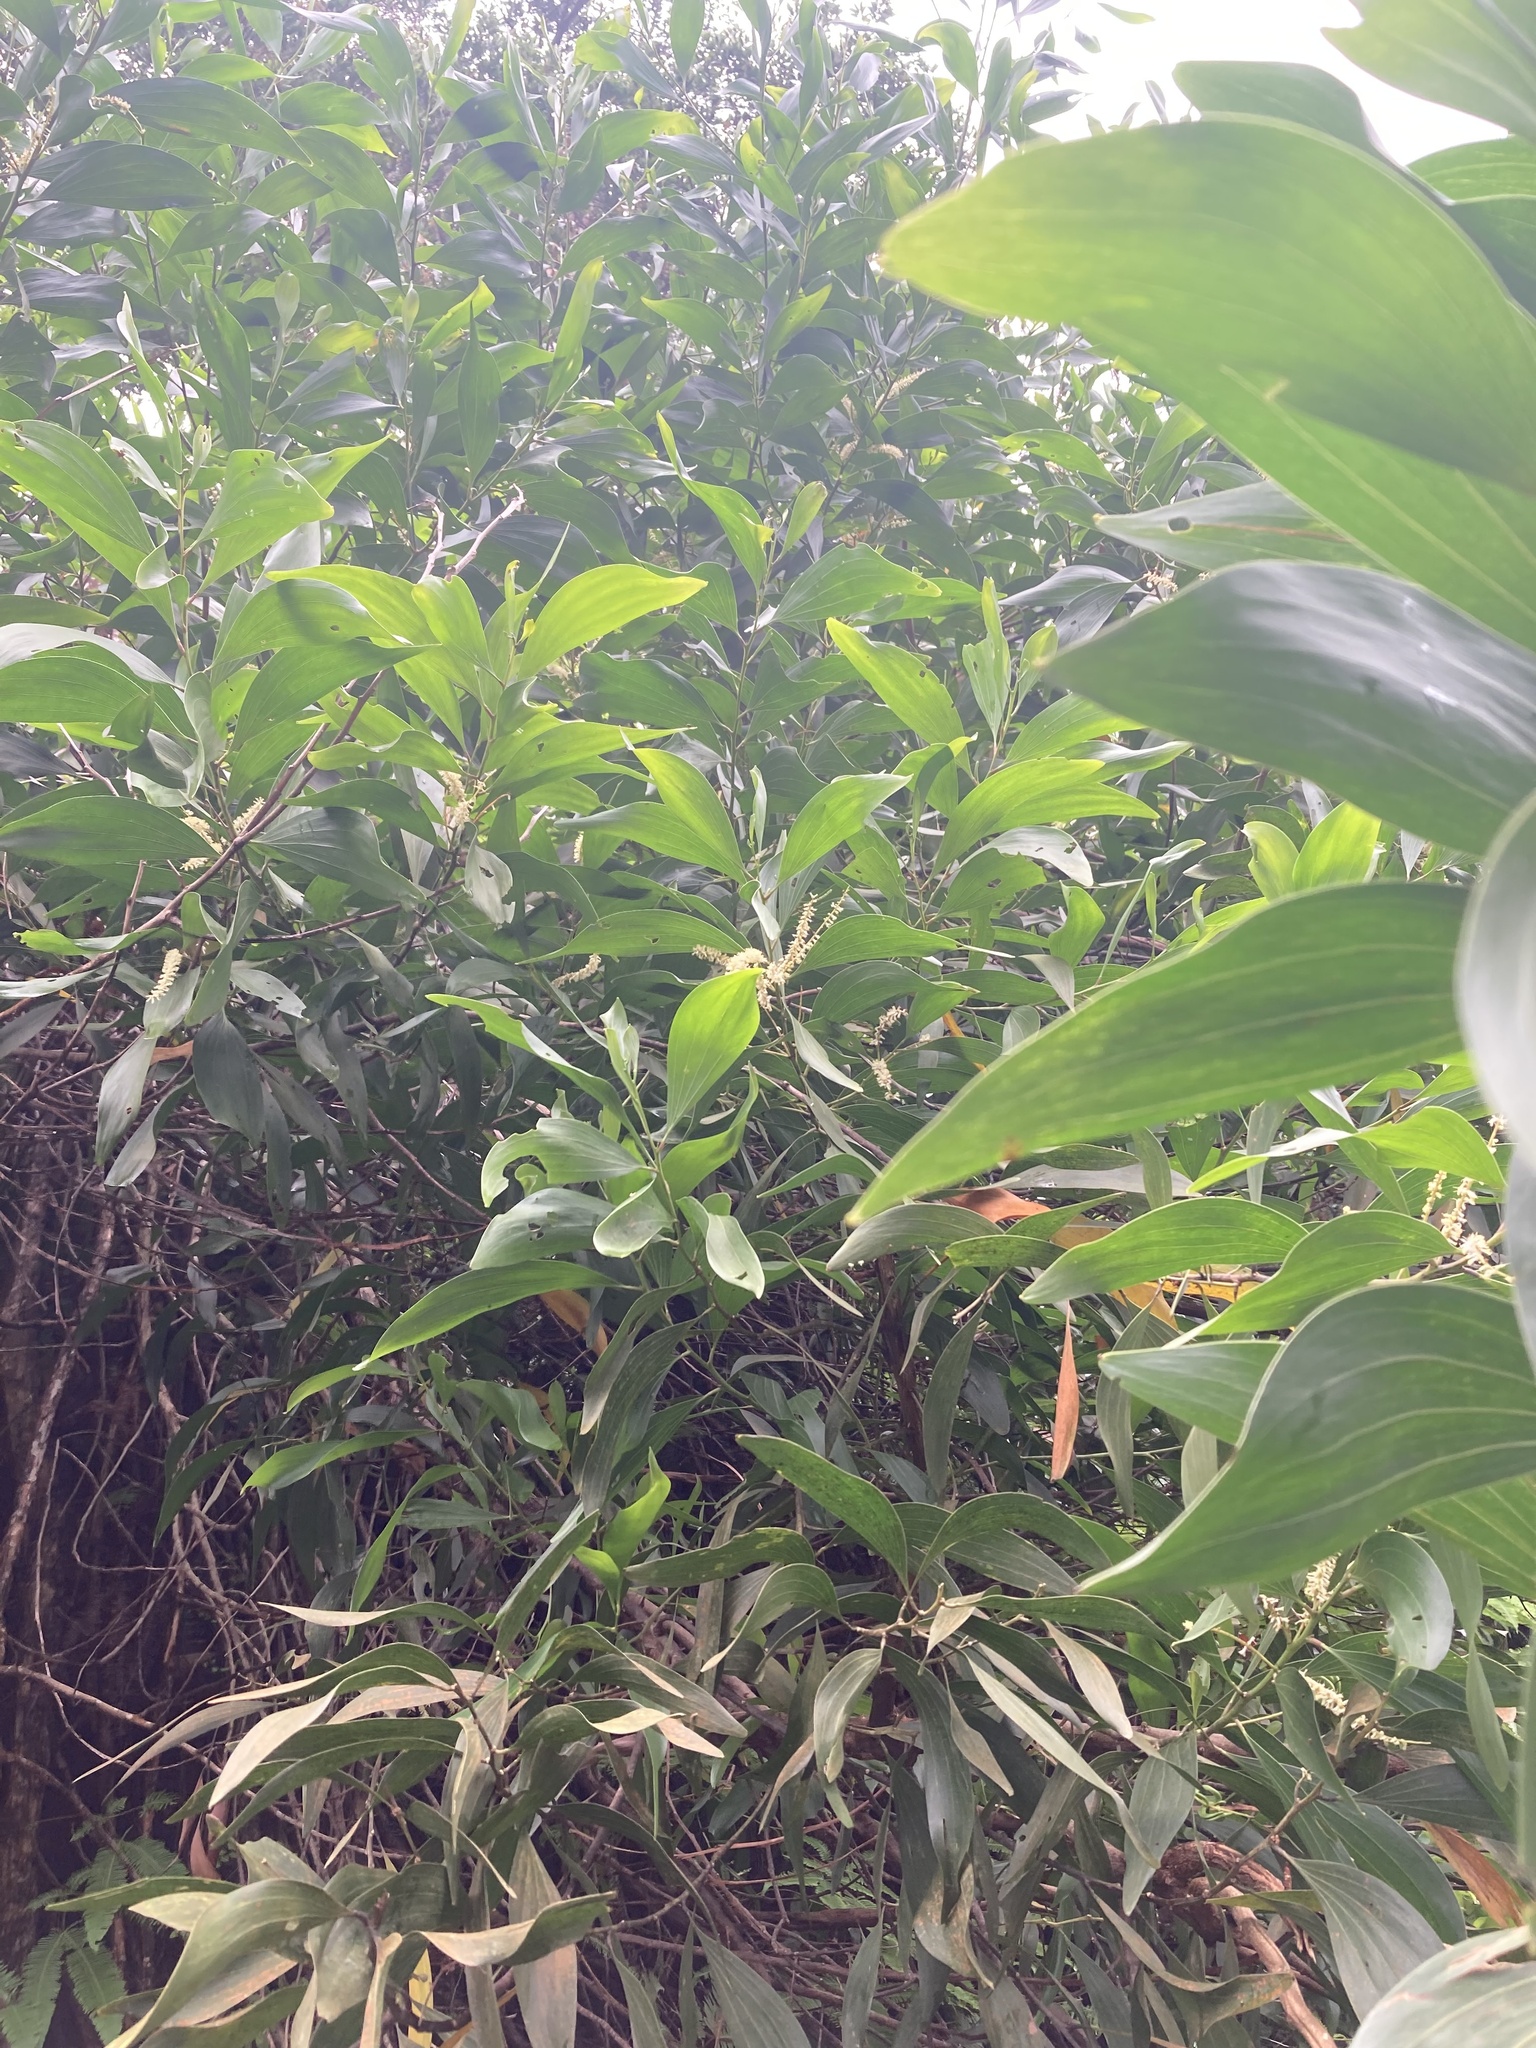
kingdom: Plantae
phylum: Tracheophyta
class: Magnoliopsida
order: Fabales
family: Fabaceae
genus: Acacia
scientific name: Acacia mangium
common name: Black wattle
